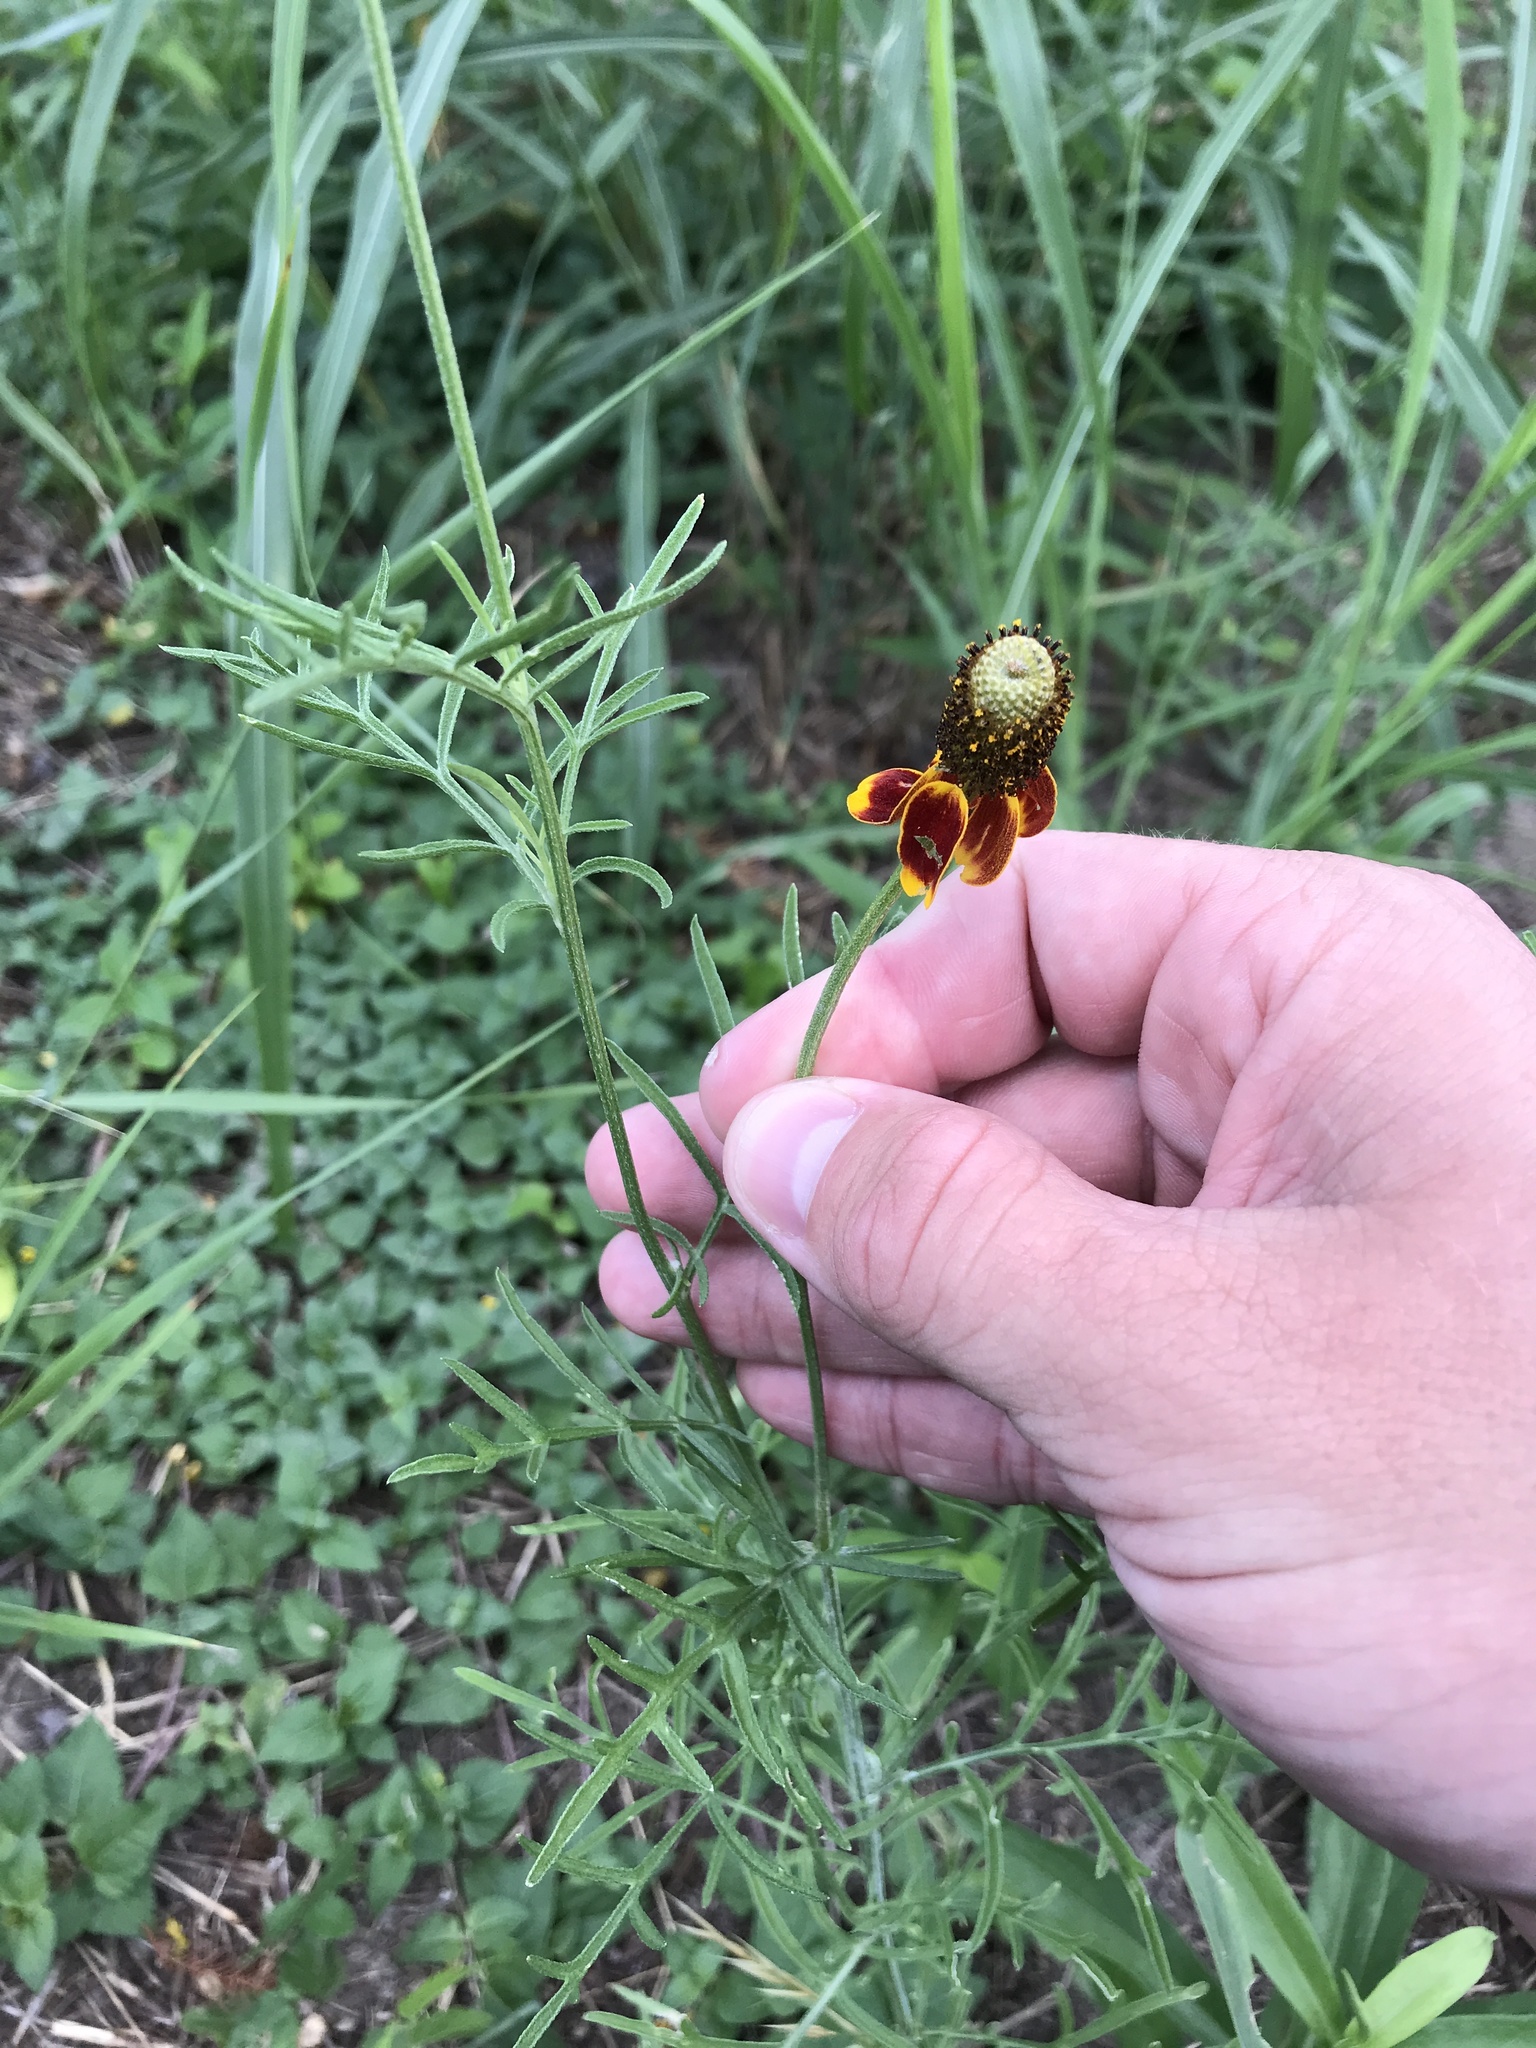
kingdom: Plantae
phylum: Tracheophyta
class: Magnoliopsida
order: Asterales
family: Asteraceae
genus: Ratibida
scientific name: Ratibida columnifera
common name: Prairie coneflower
